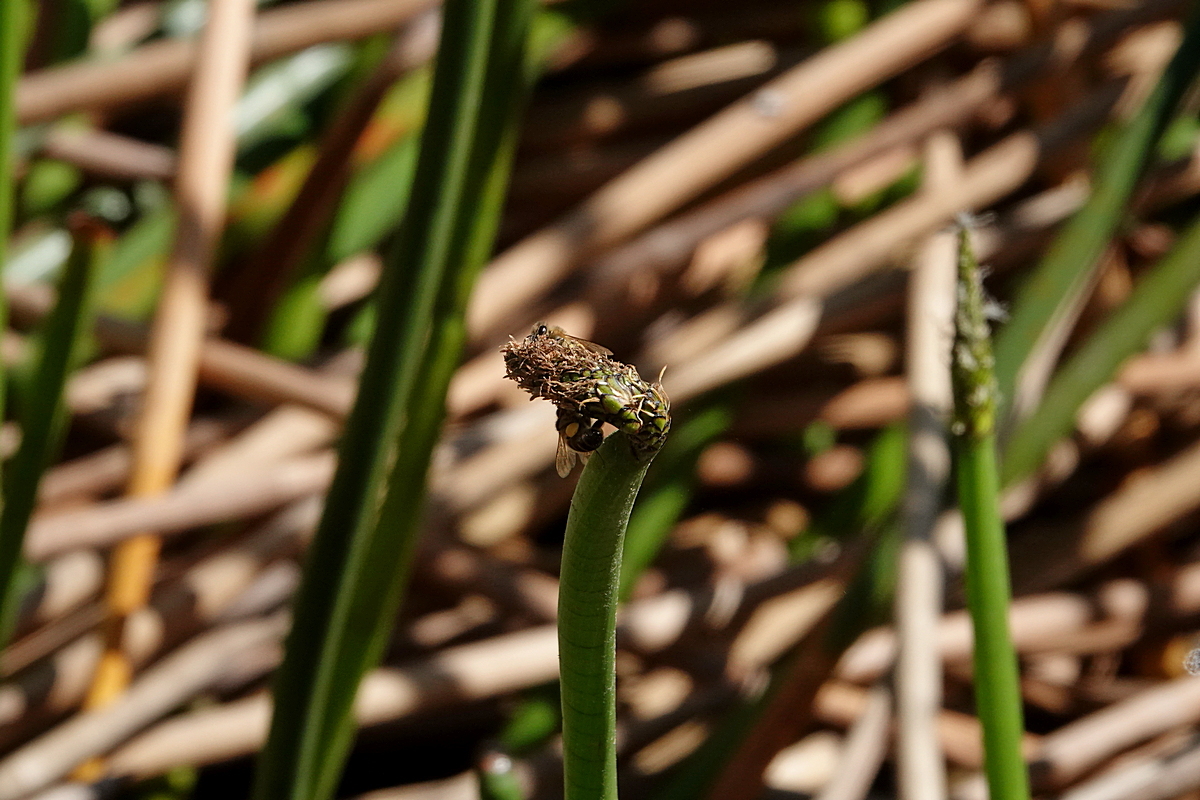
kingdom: Plantae
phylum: Tracheophyta
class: Liliopsida
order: Poales
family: Cyperaceae
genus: Eleocharis
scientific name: Eleocharis sphacelata
